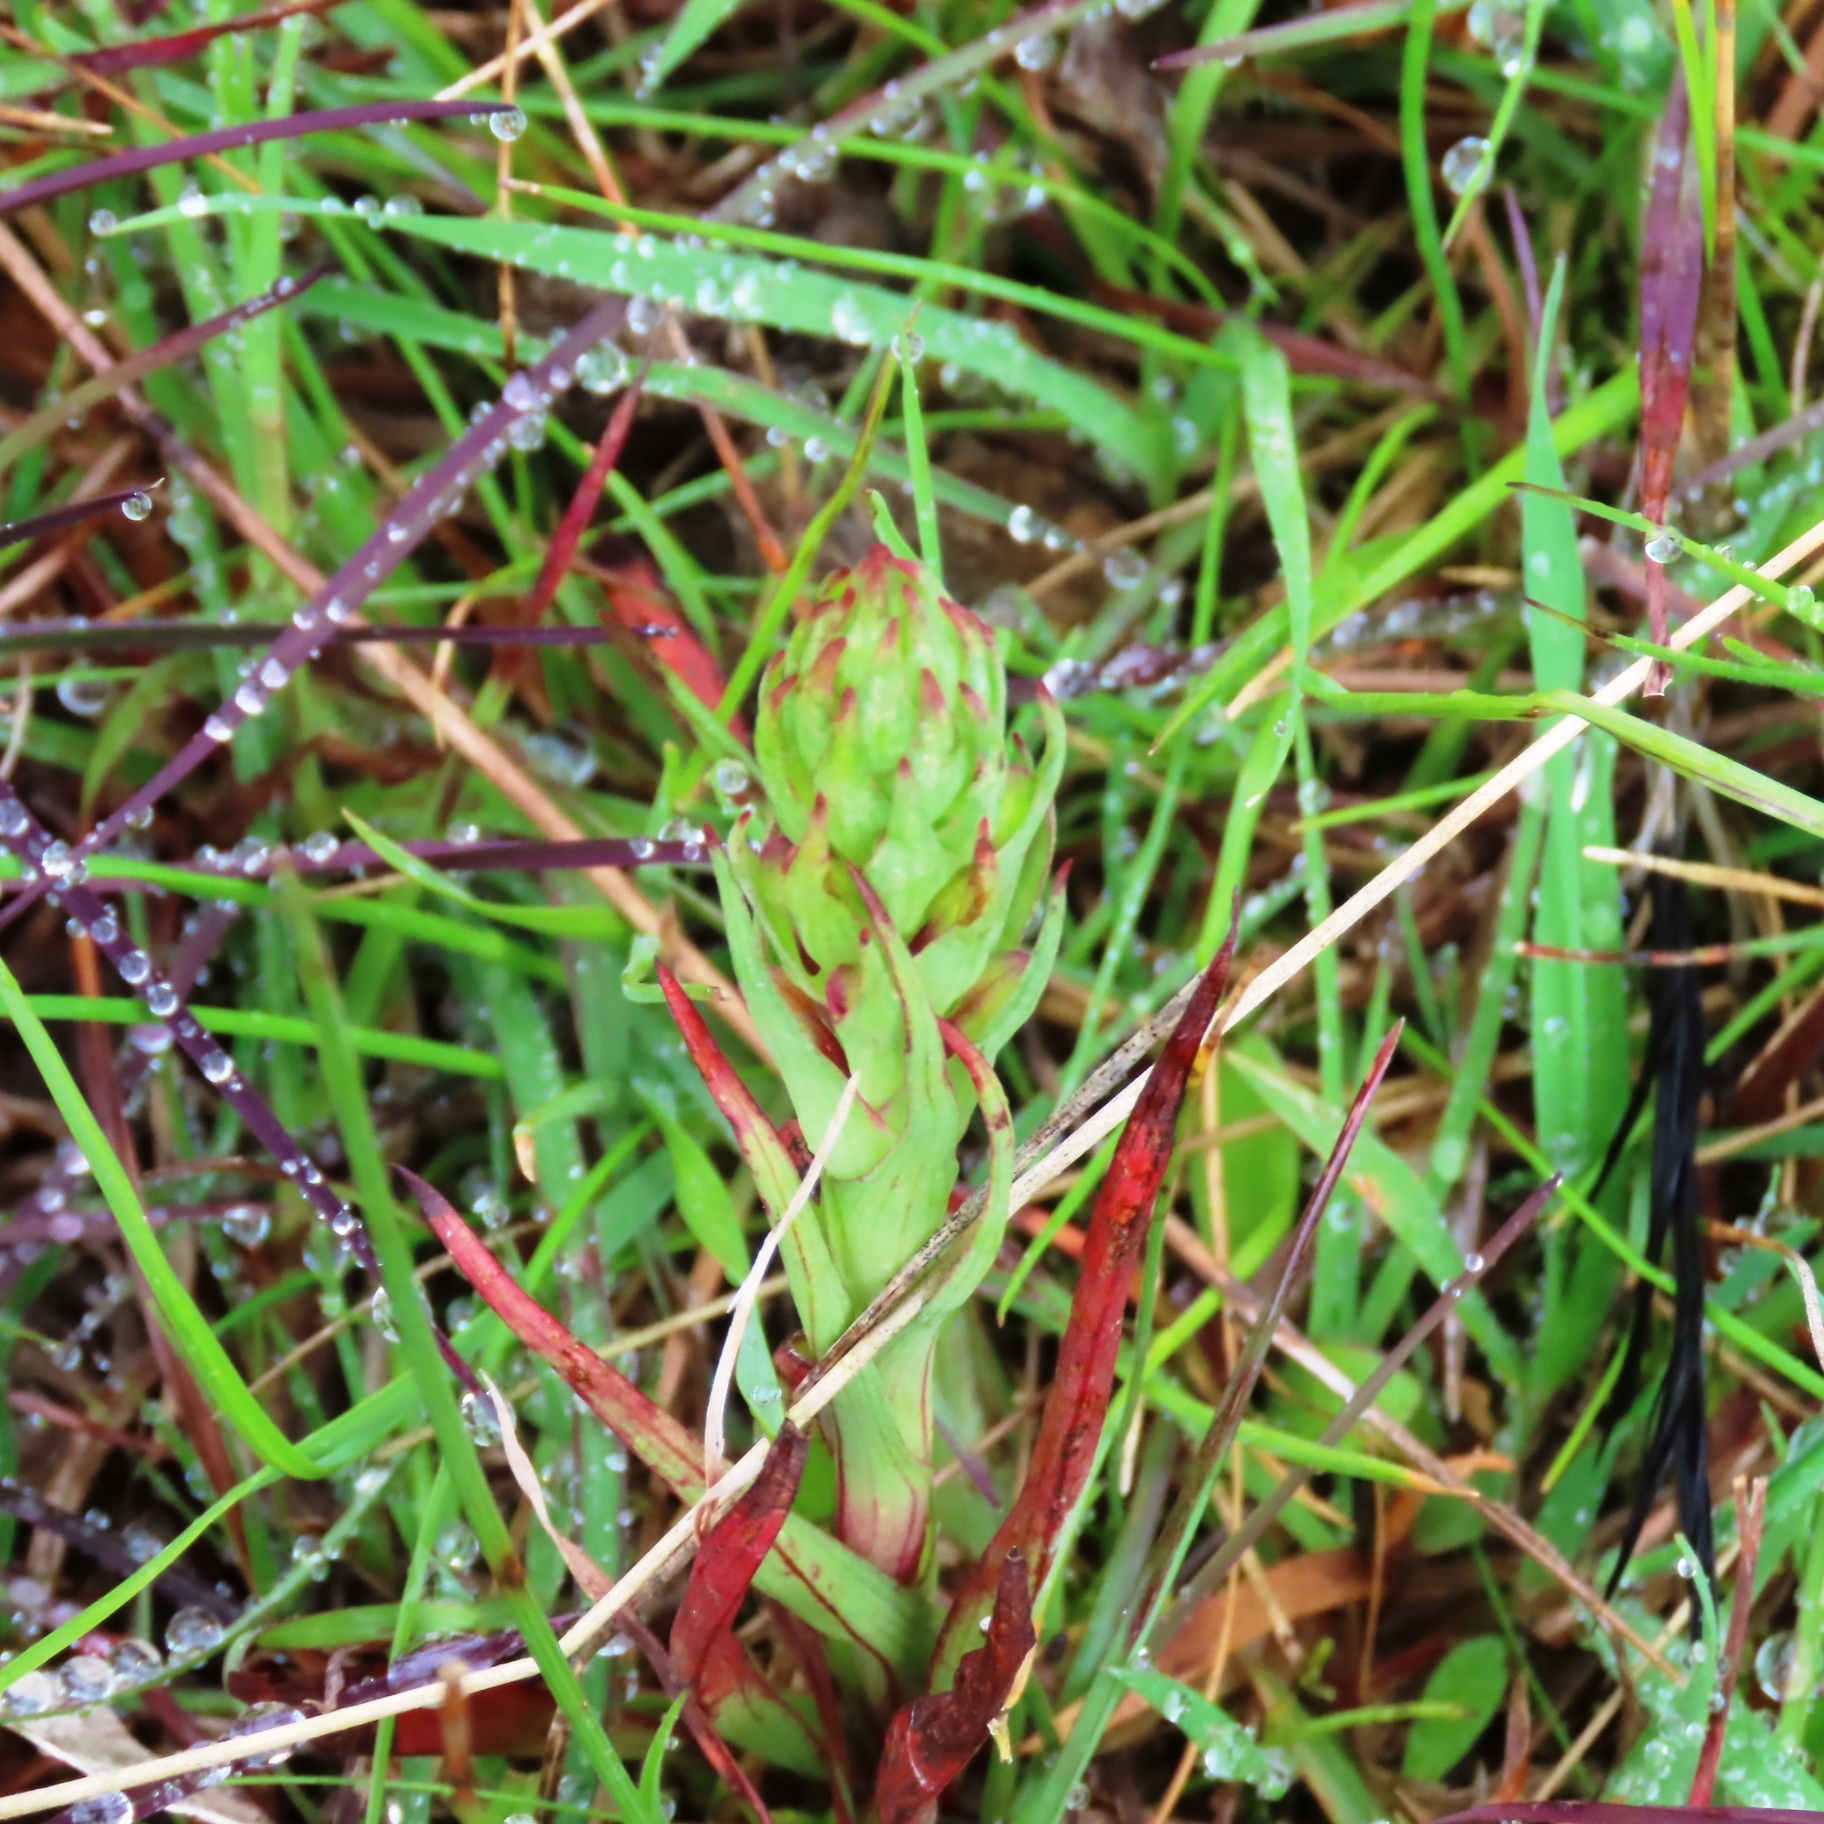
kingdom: Plantae
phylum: Tracheophyta
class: Liliopsida
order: Asparagales
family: Orchidaceae
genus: Disa
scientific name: Disa bracteata
